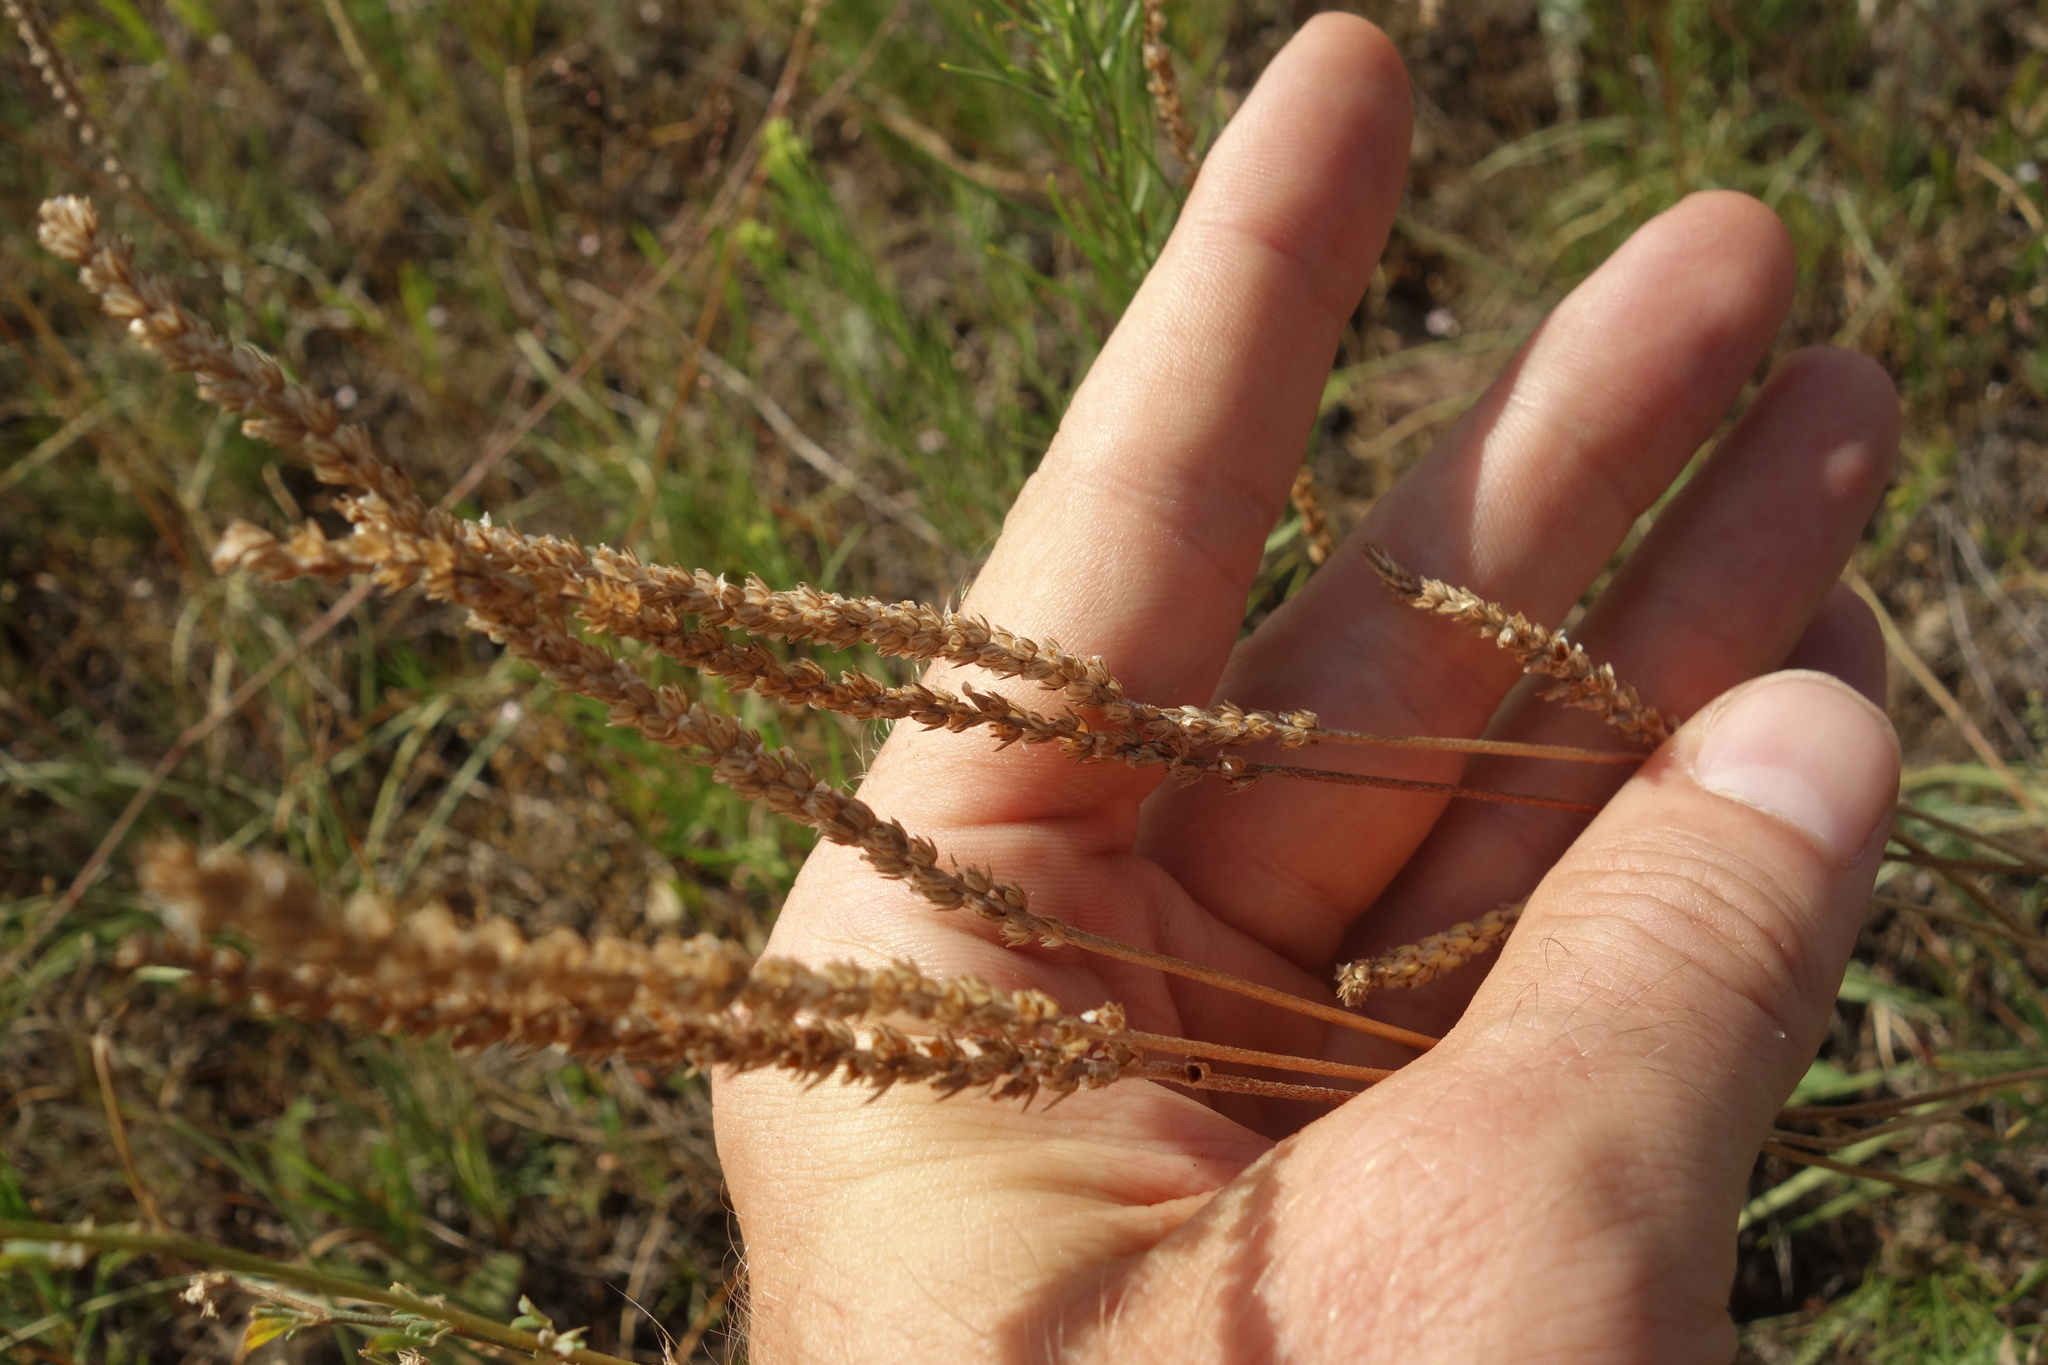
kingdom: Plantae
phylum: Tracheophyta
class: Magnoliopsida
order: Lamiales
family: Plantaginaceae
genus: Plantago
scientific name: Plantago salsa
